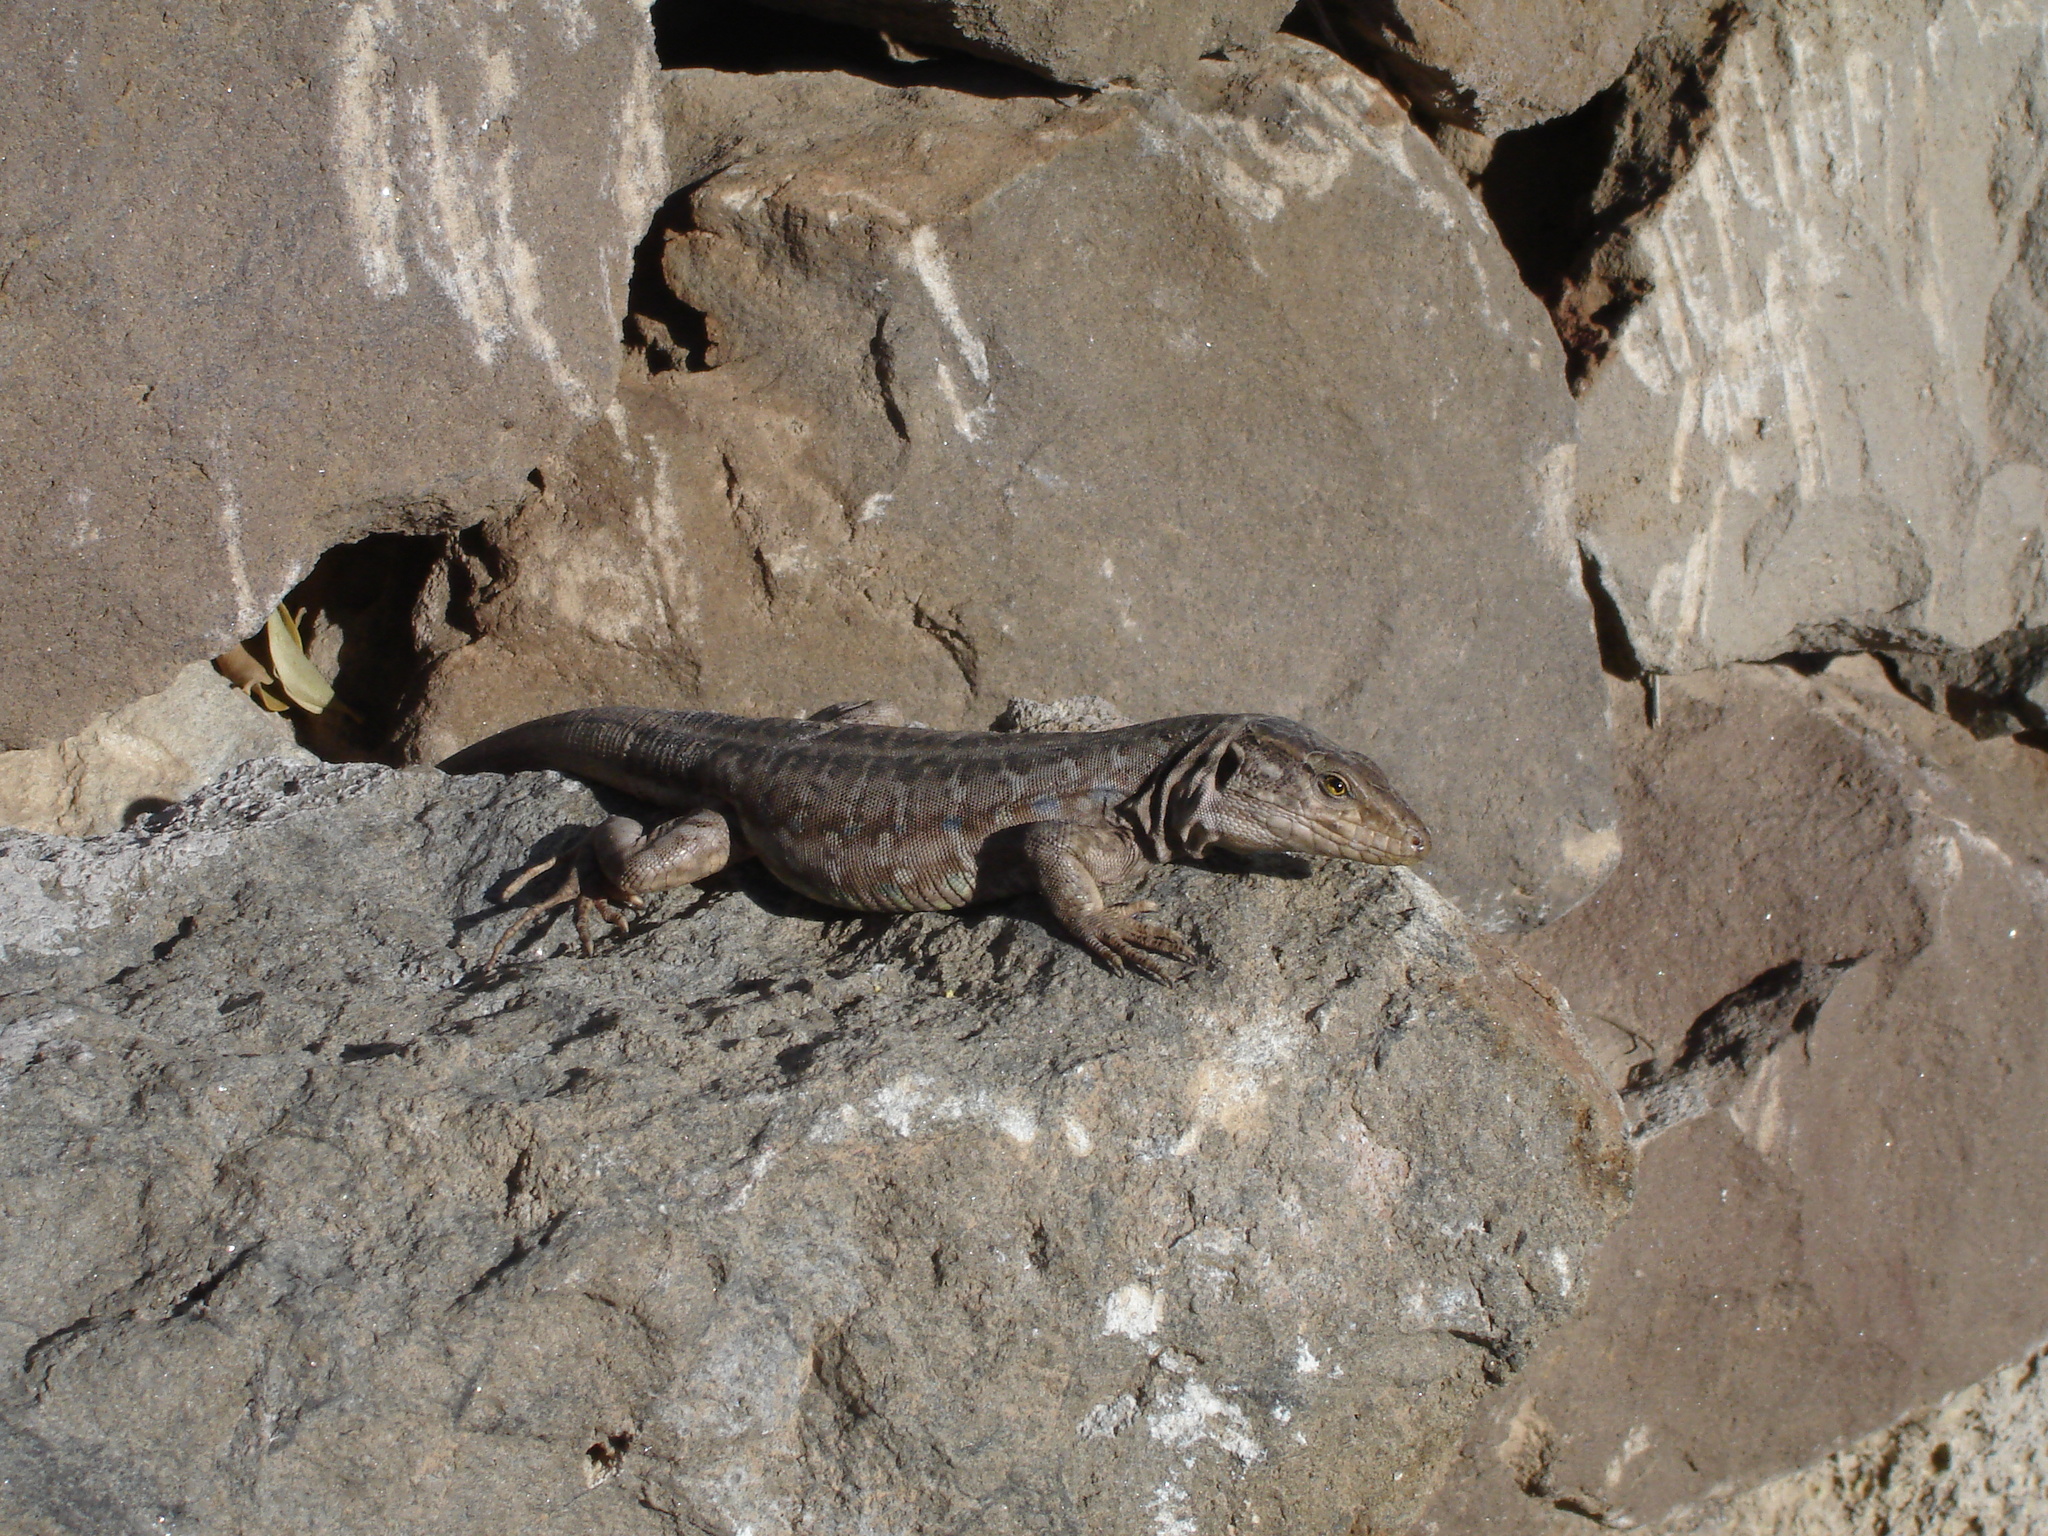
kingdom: Animalia
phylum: Chordata
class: Squamata
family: Lacertidae
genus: Gallotia
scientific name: Gallotia galloti
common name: Gallot's lizard
